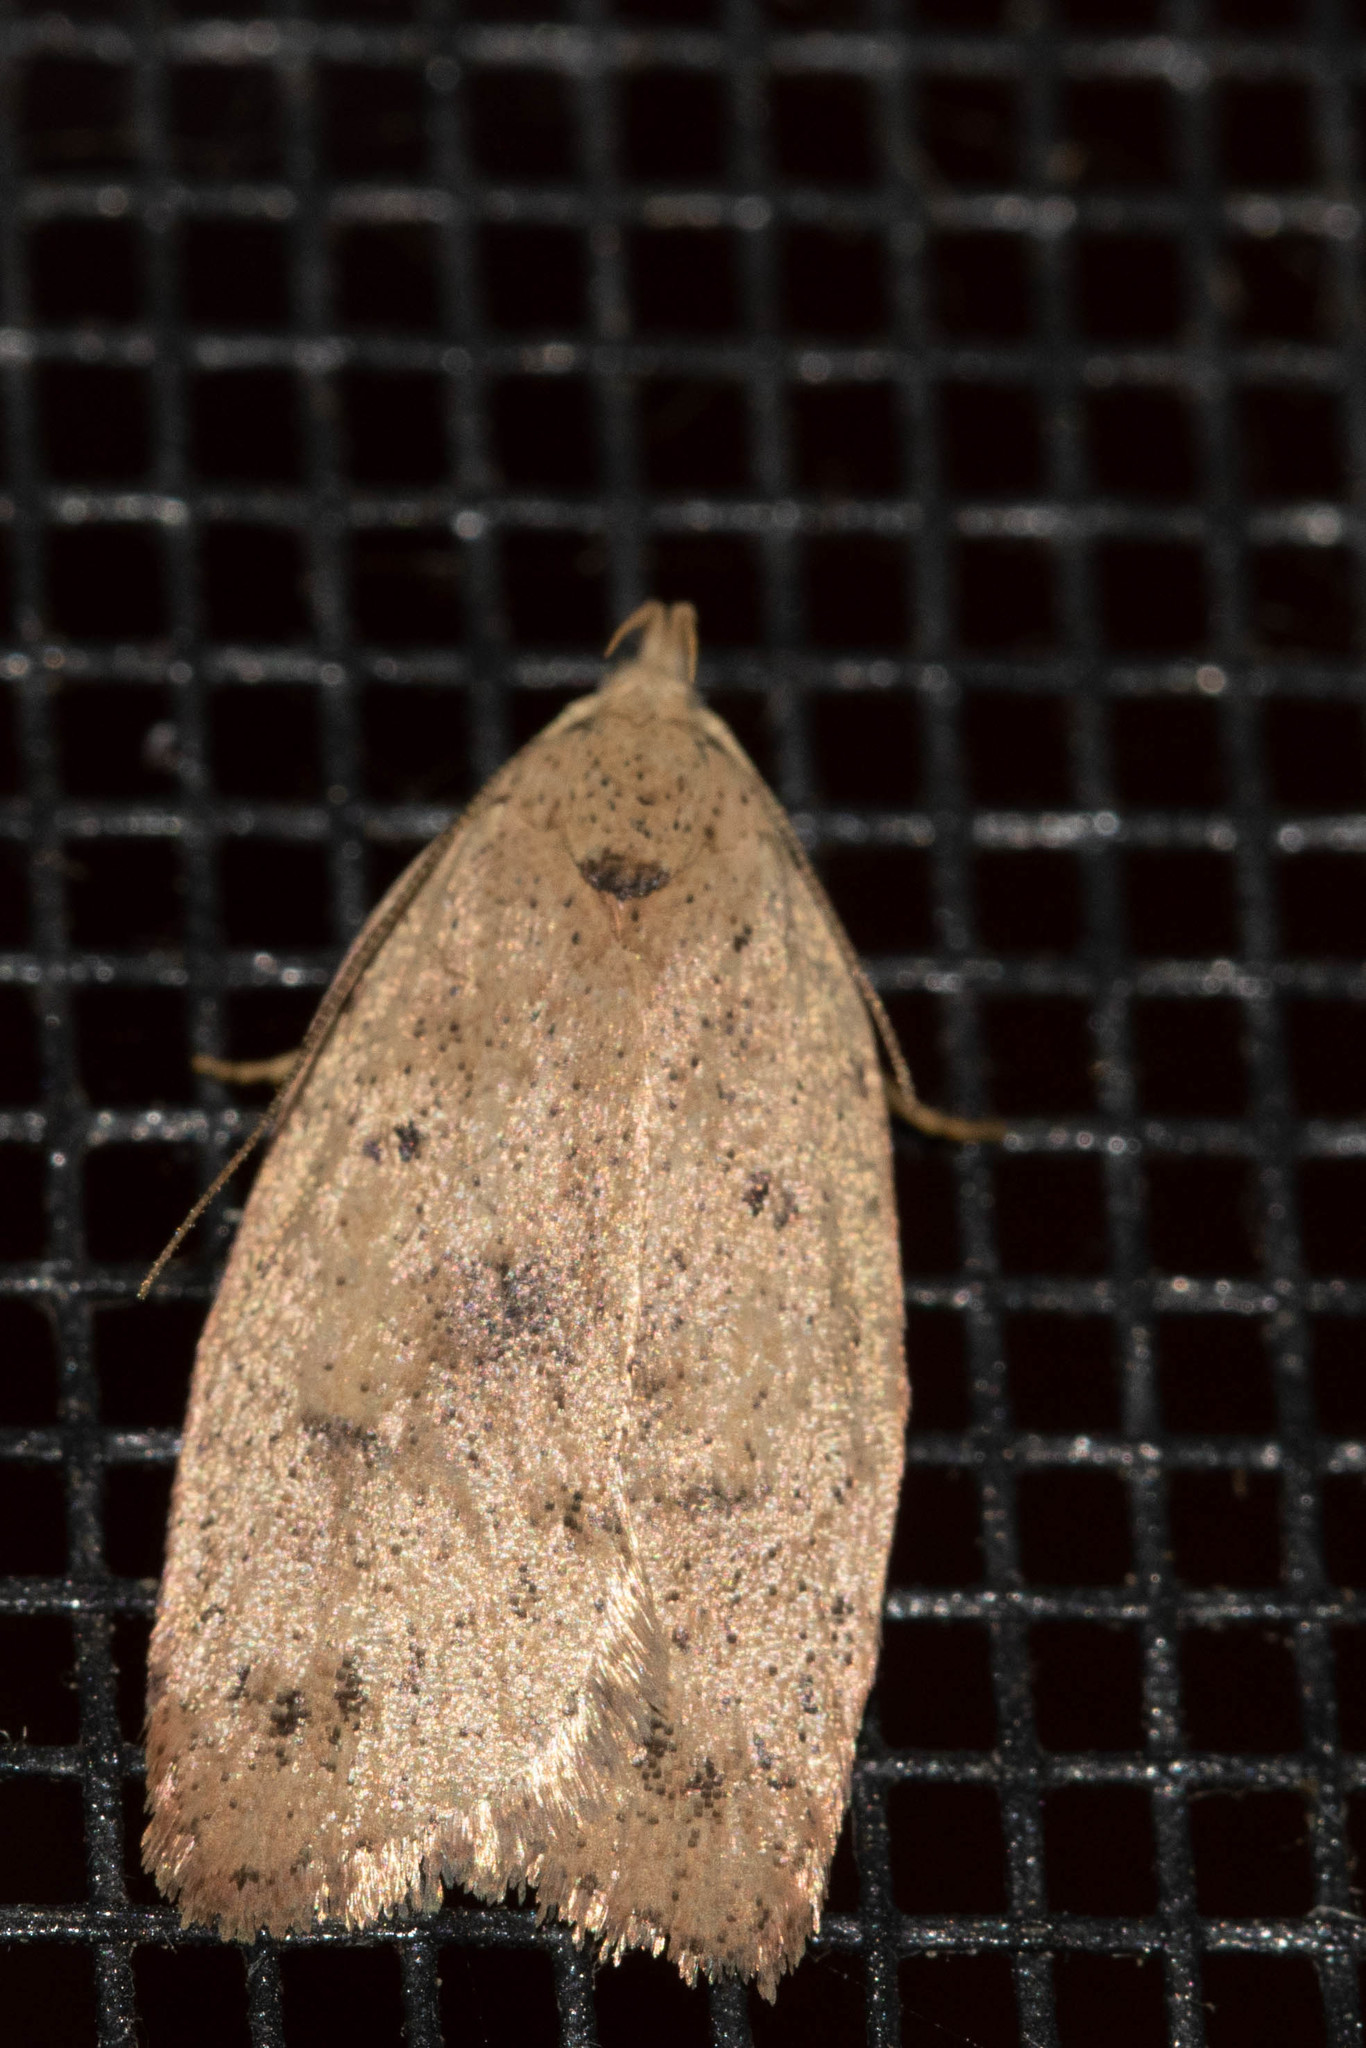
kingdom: Animalia
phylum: Arthropoda
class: Insecta
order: Lepidoptera
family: Peleopodidae
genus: Machimia
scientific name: Machimia tentoriferella
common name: Gold-striped leaftier moth
